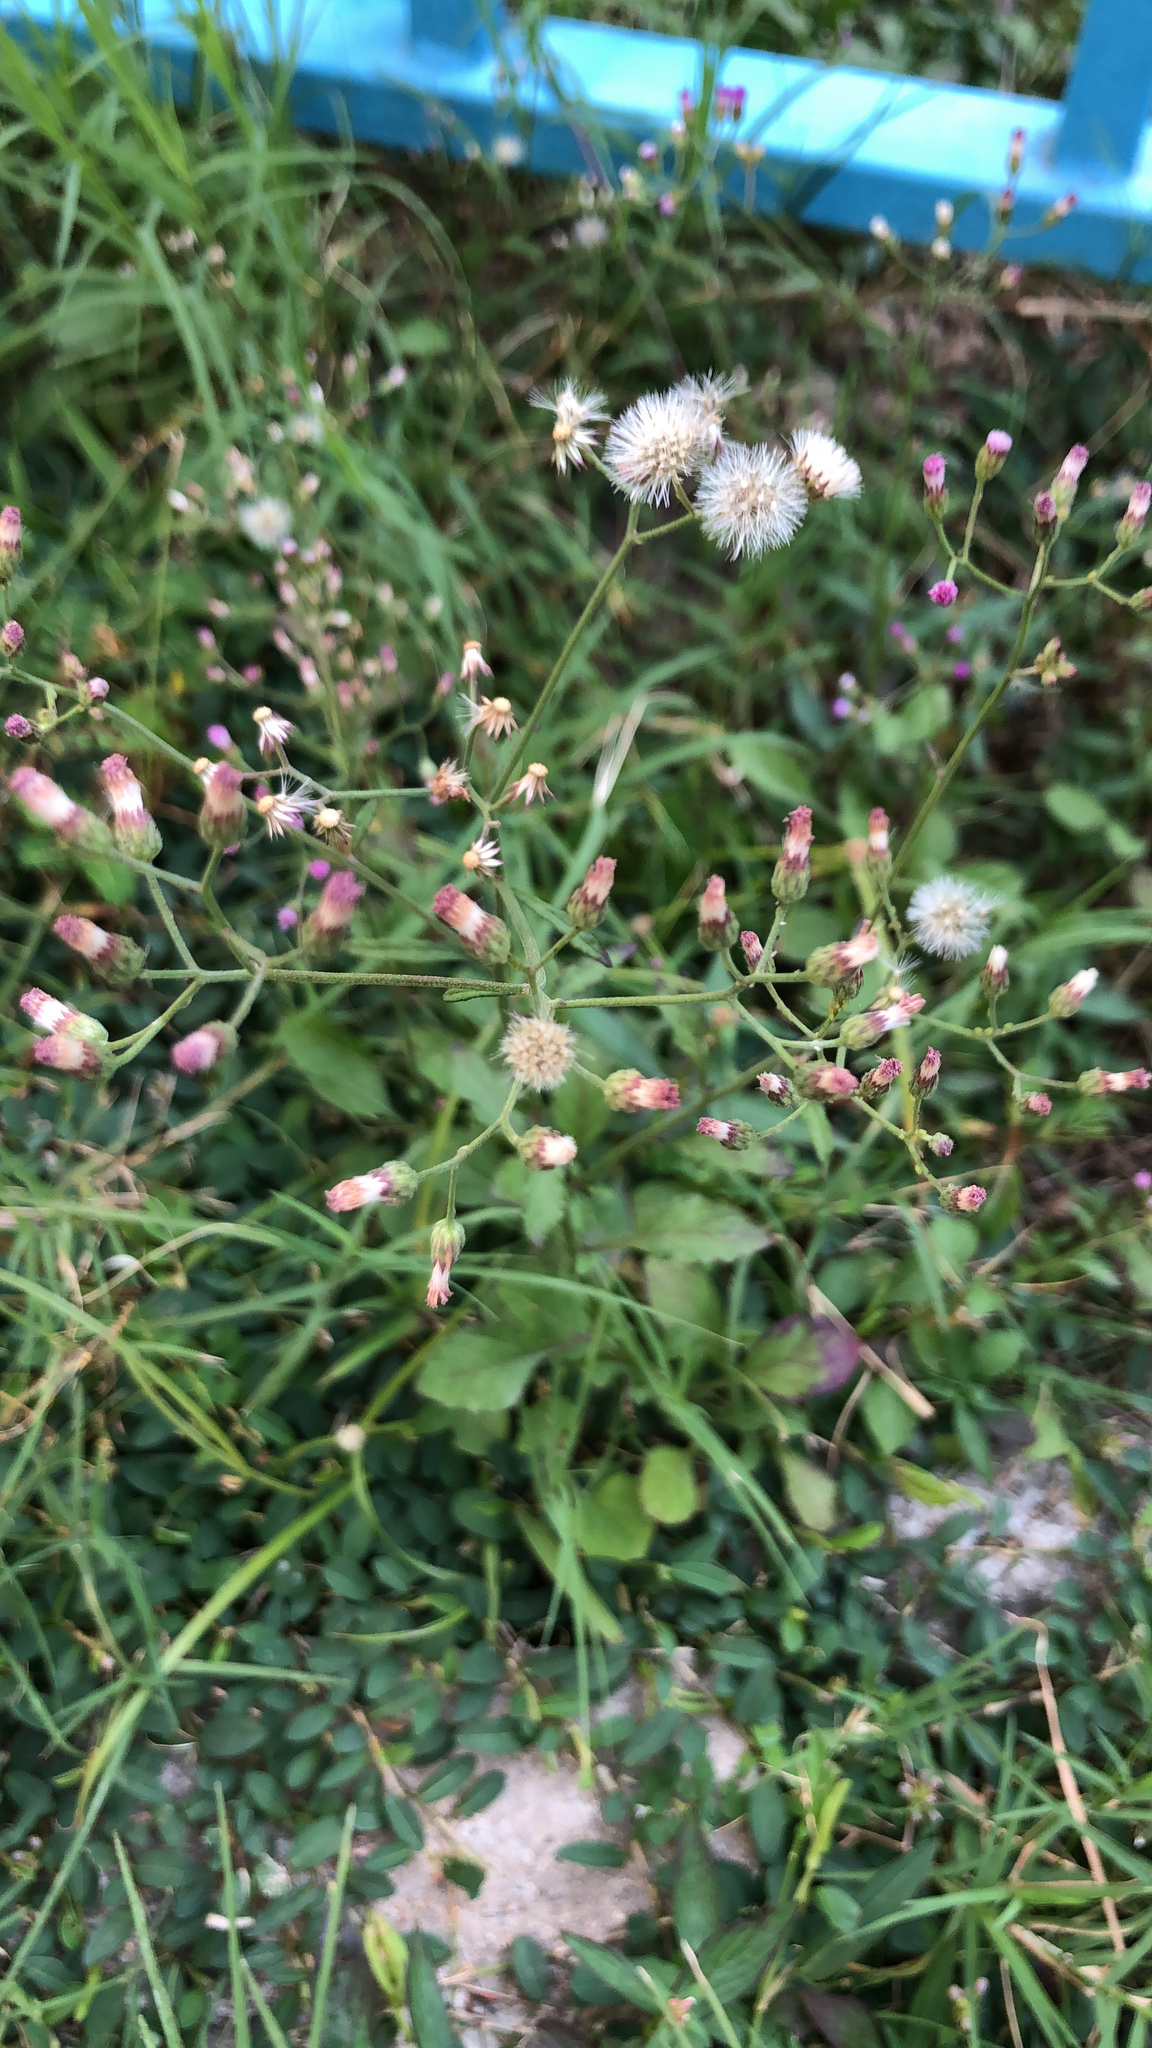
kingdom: Plantae
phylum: Tracheophyta
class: Magnoliopsida
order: Asterales
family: Asteraceae
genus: Cyanthillium
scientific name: Cyanthillium cinereum
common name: Little ironweed
